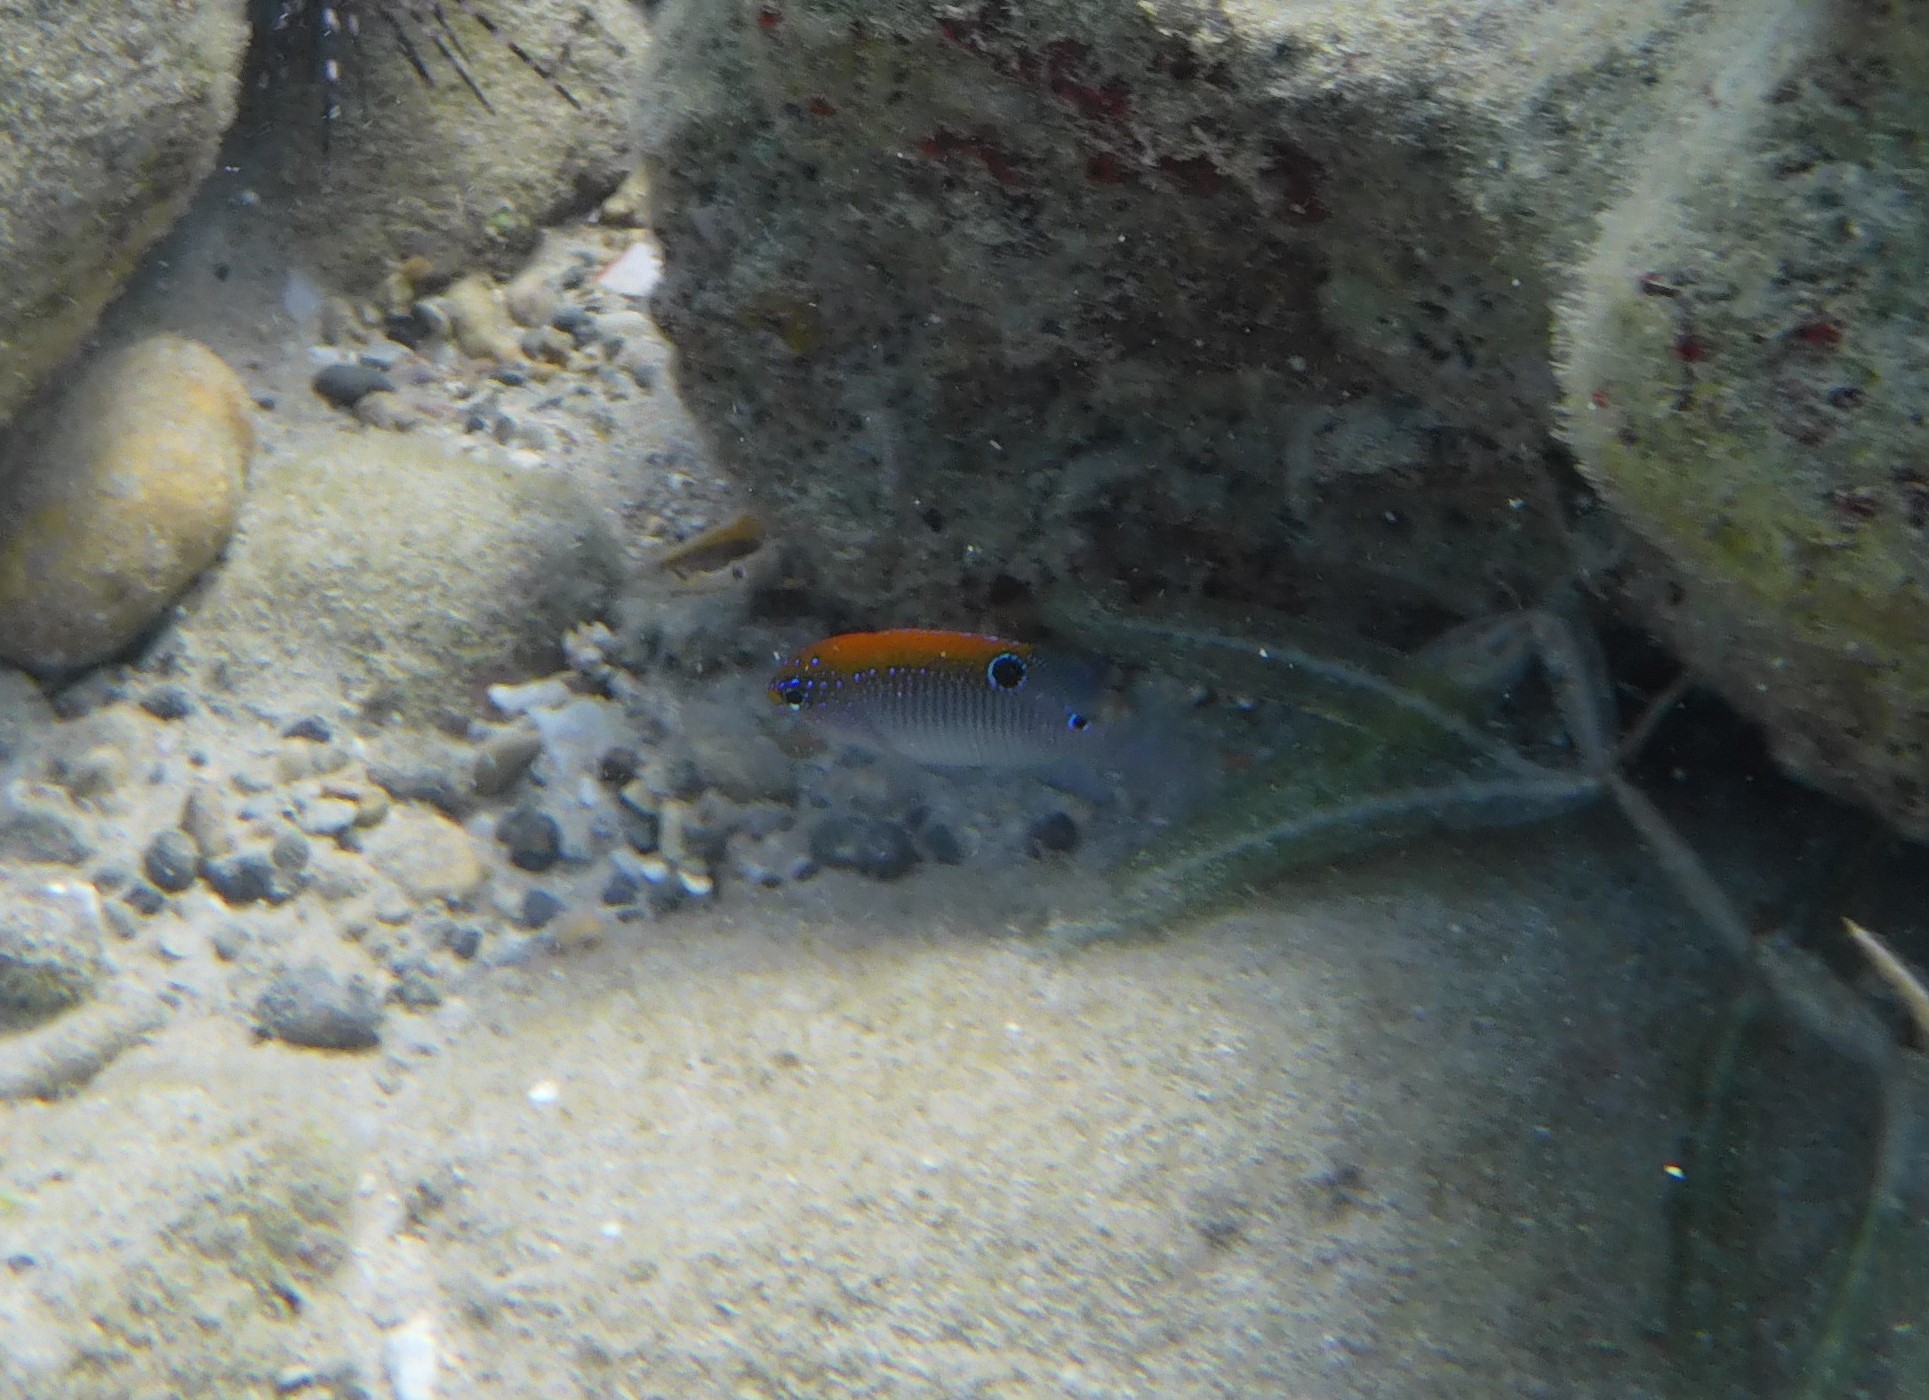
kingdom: Animalia
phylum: Chordata
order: Perciformes
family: Pomacentridae
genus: Stegastes
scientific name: Stegastes adustus
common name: Dusky damselfish
